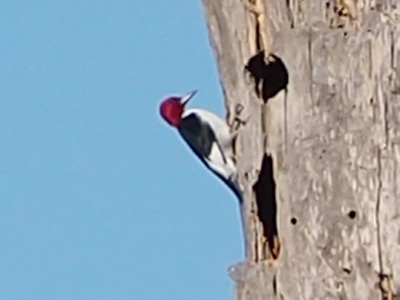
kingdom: Animalia
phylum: Chordata
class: Aves
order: Piciformes
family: Picidae
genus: Melanerpes
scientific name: Melanerpes erythrocephalus
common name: Red-headed woodpecker
